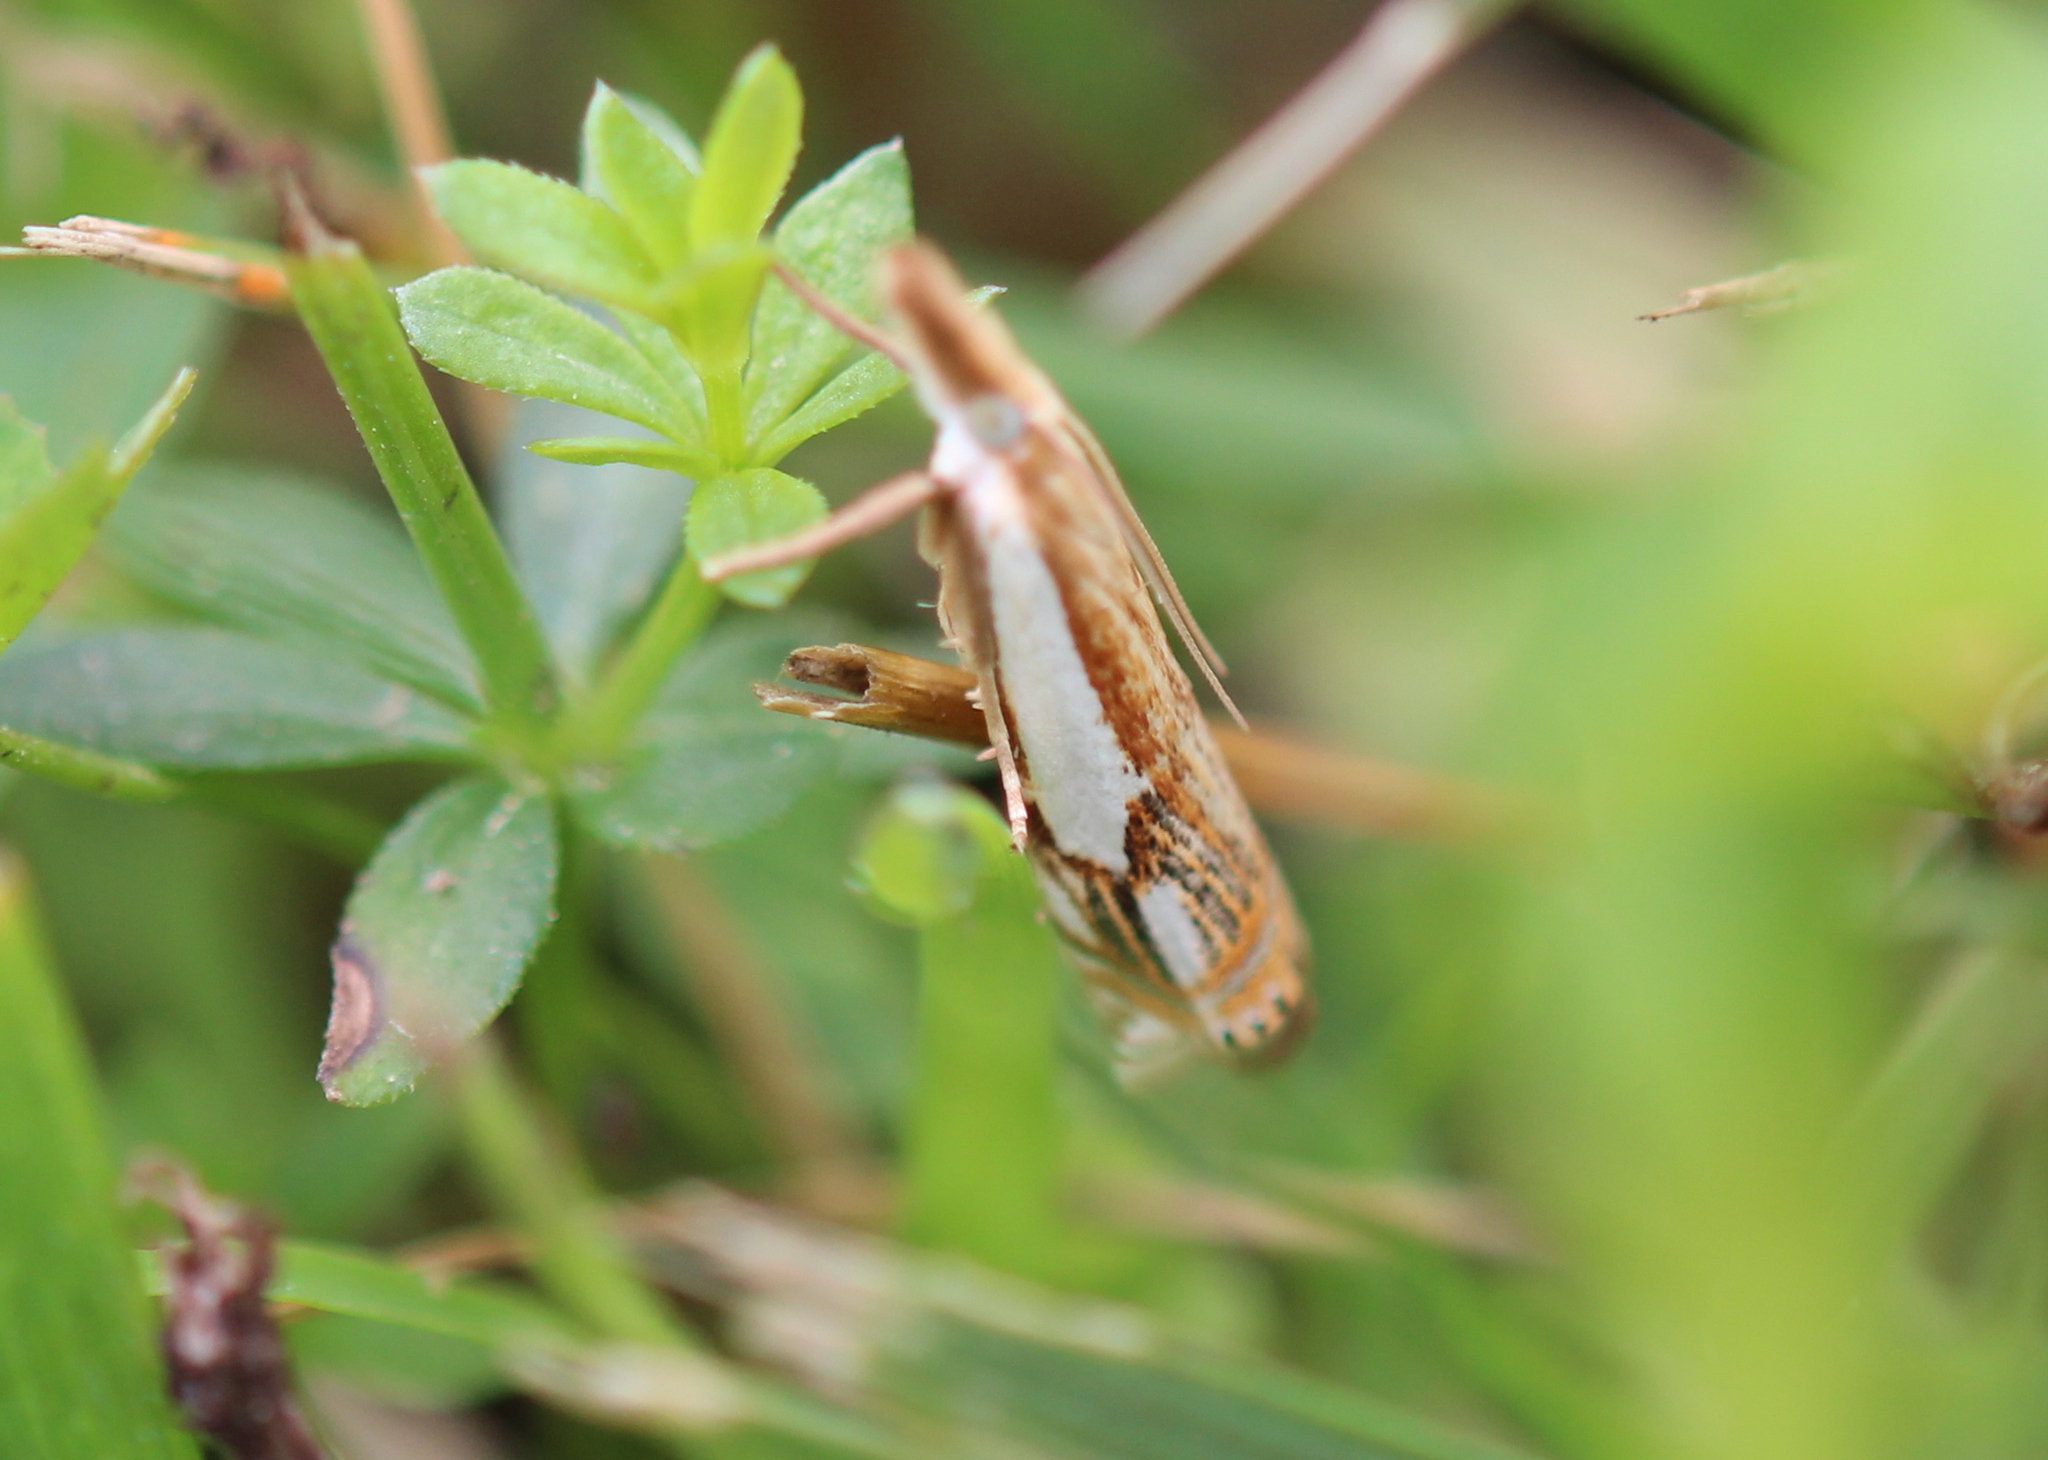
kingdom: Animalia
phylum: Arthropoda
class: Insecta
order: Lepidoptera
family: Crambidae
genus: Crambus
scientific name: Crambus agitatellus
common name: Double-banded grass-veneer
